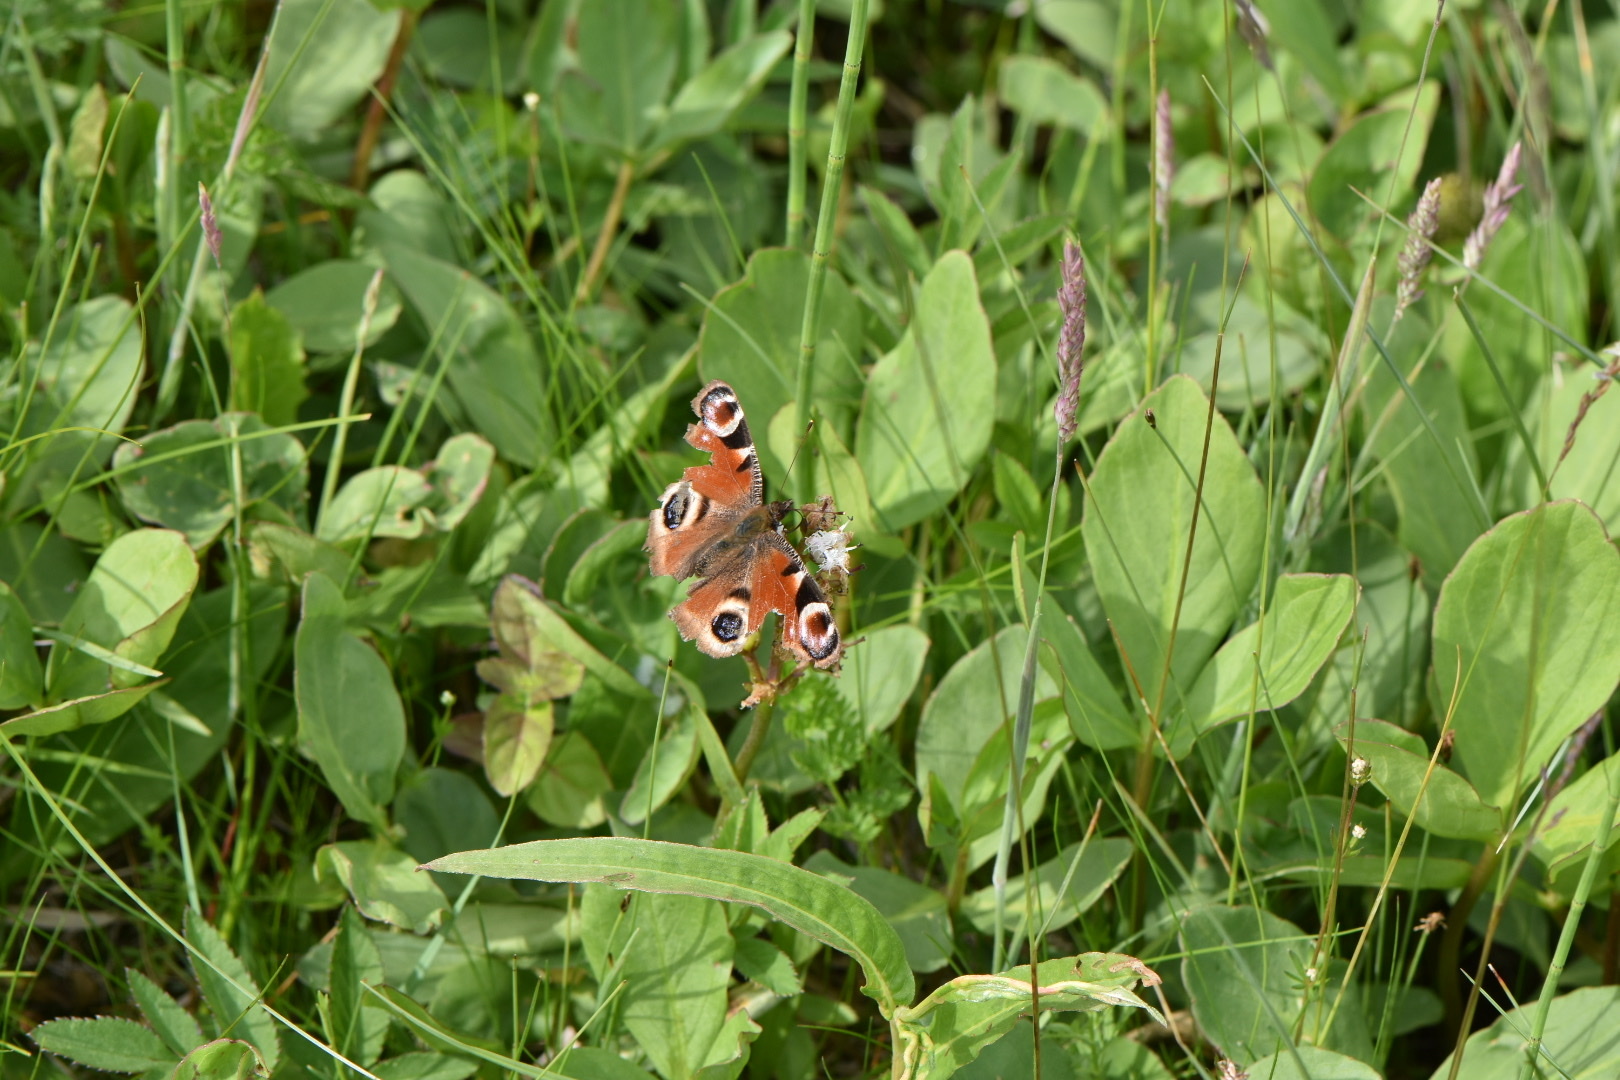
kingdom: Animalia
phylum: Arthropoda
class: Insecta
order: Lepidoptera
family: Nymphalidae
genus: Aglais
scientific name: Aglais io
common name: Peacock
